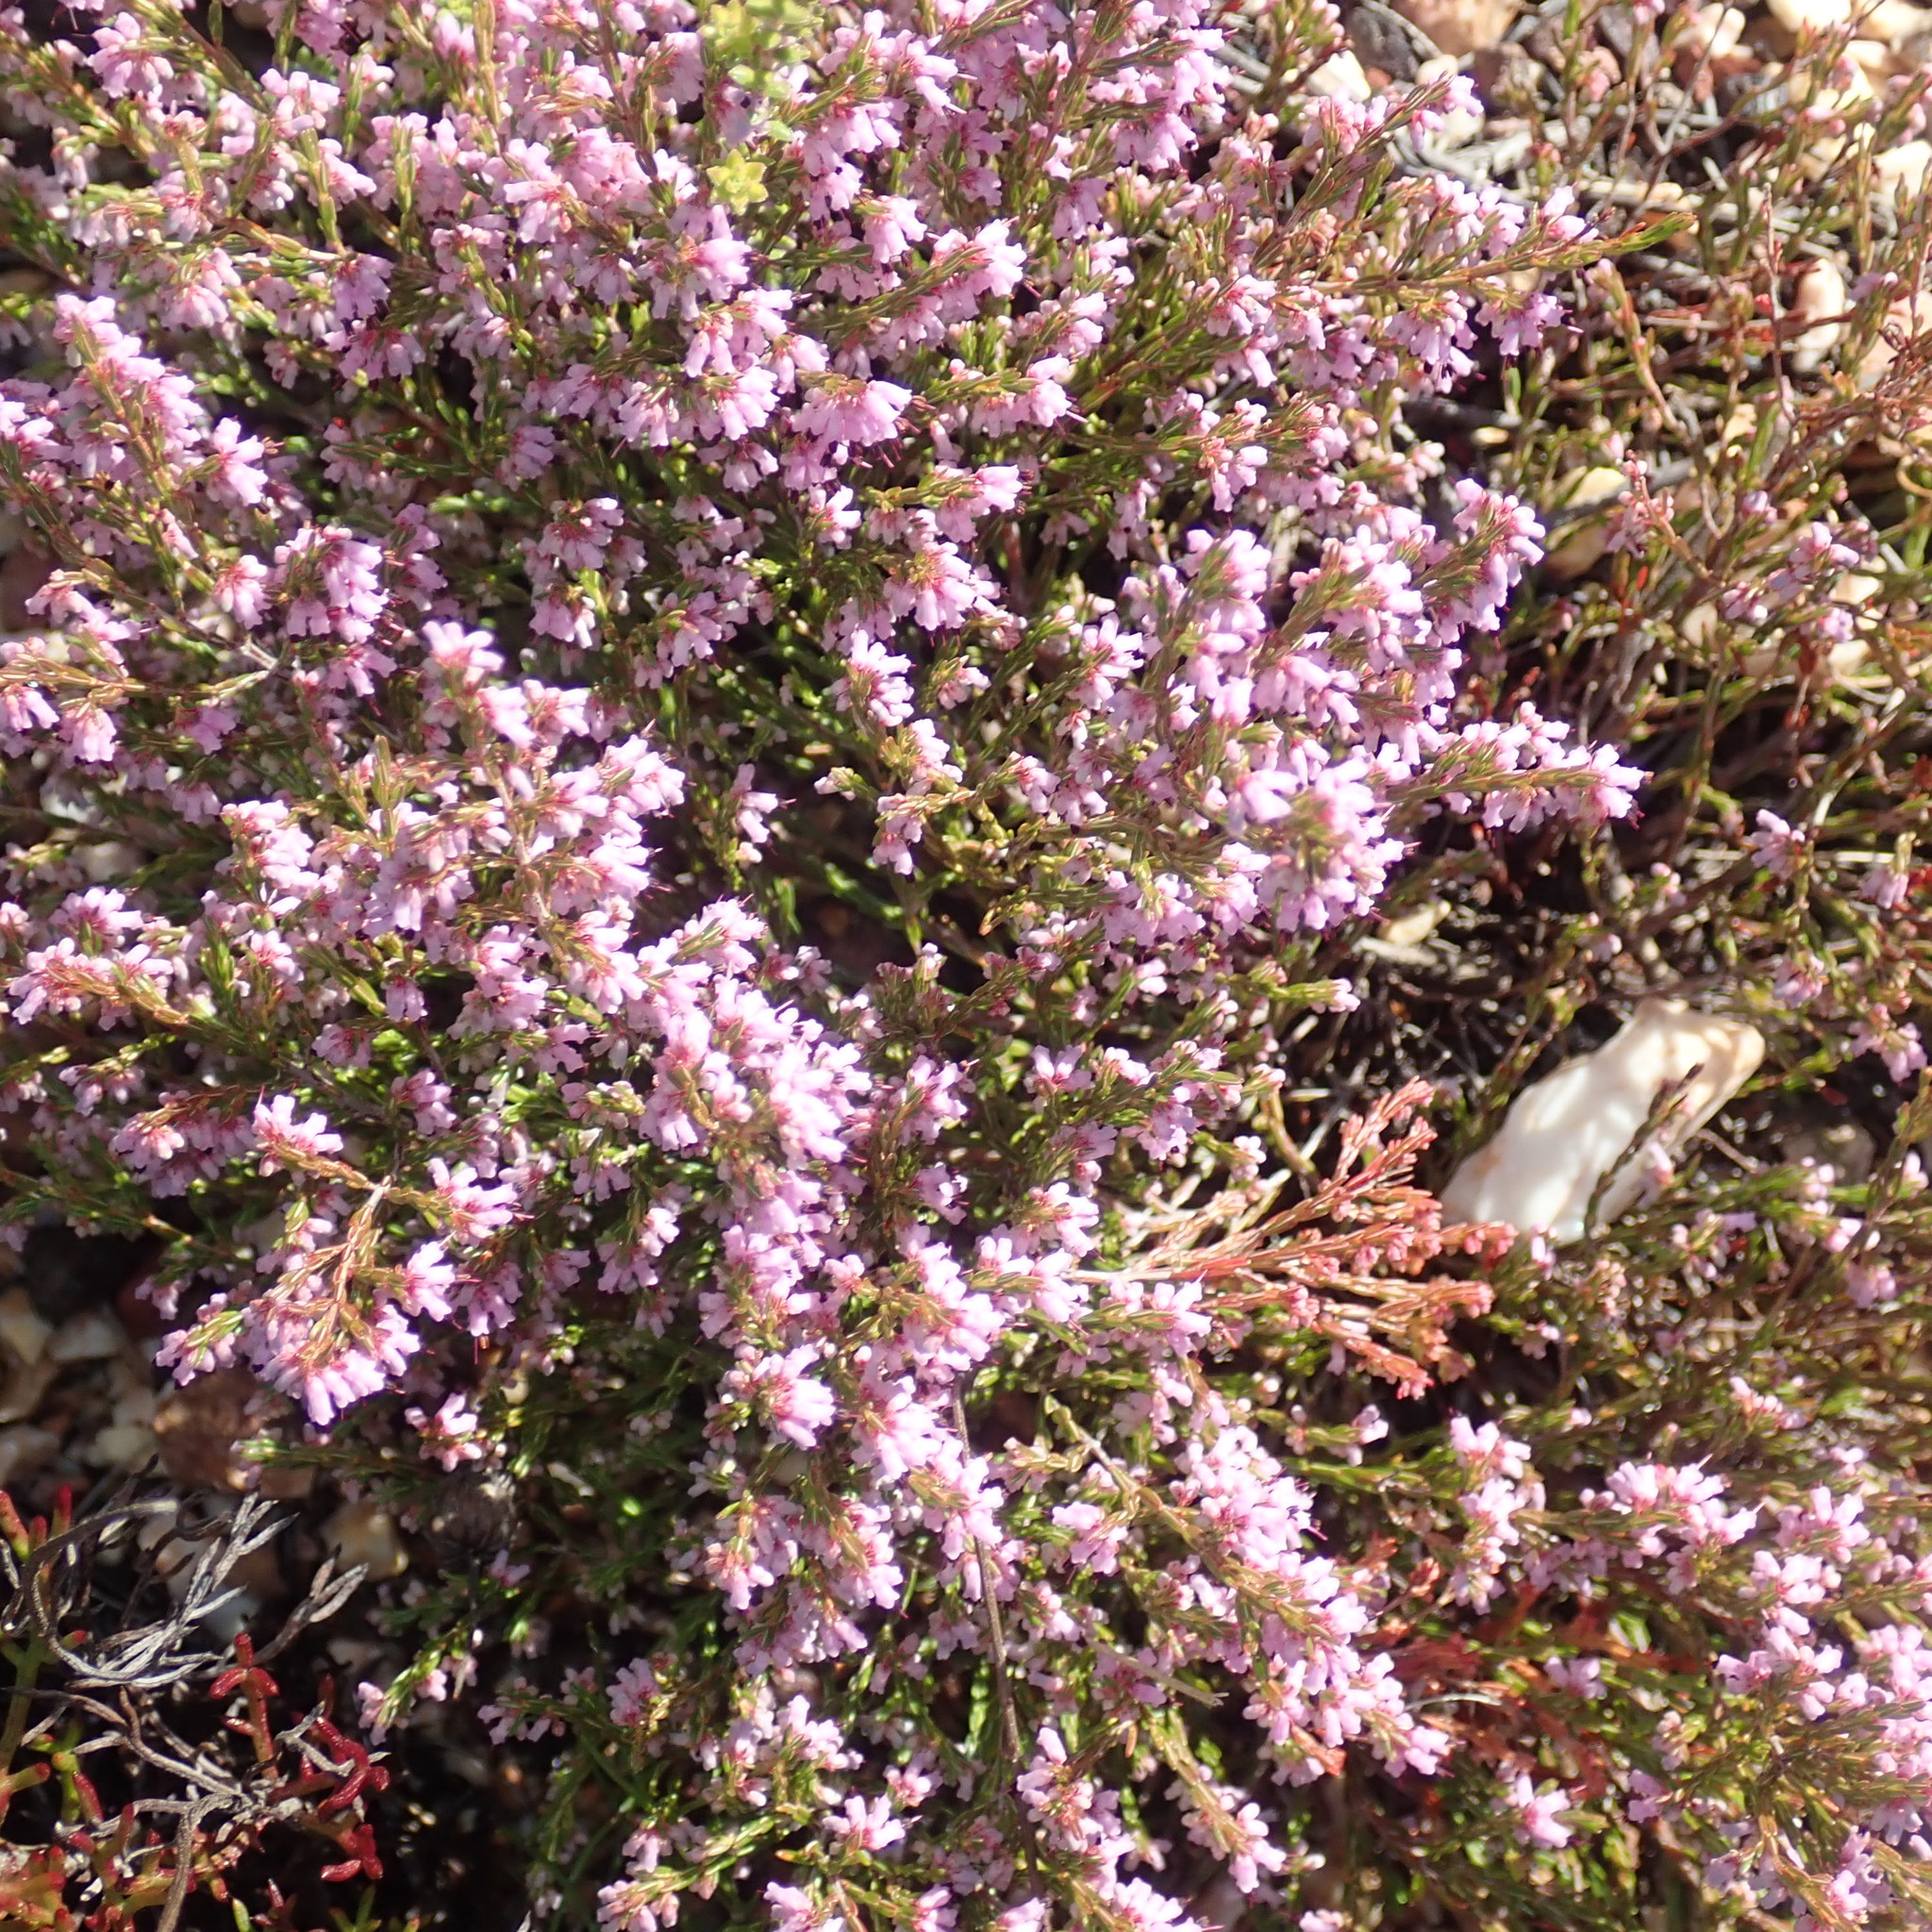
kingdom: Plantae
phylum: Tracheophyta
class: Magnoliopsida
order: Ericales
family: Ericaceae
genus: Erica
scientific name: Erica rosacea
